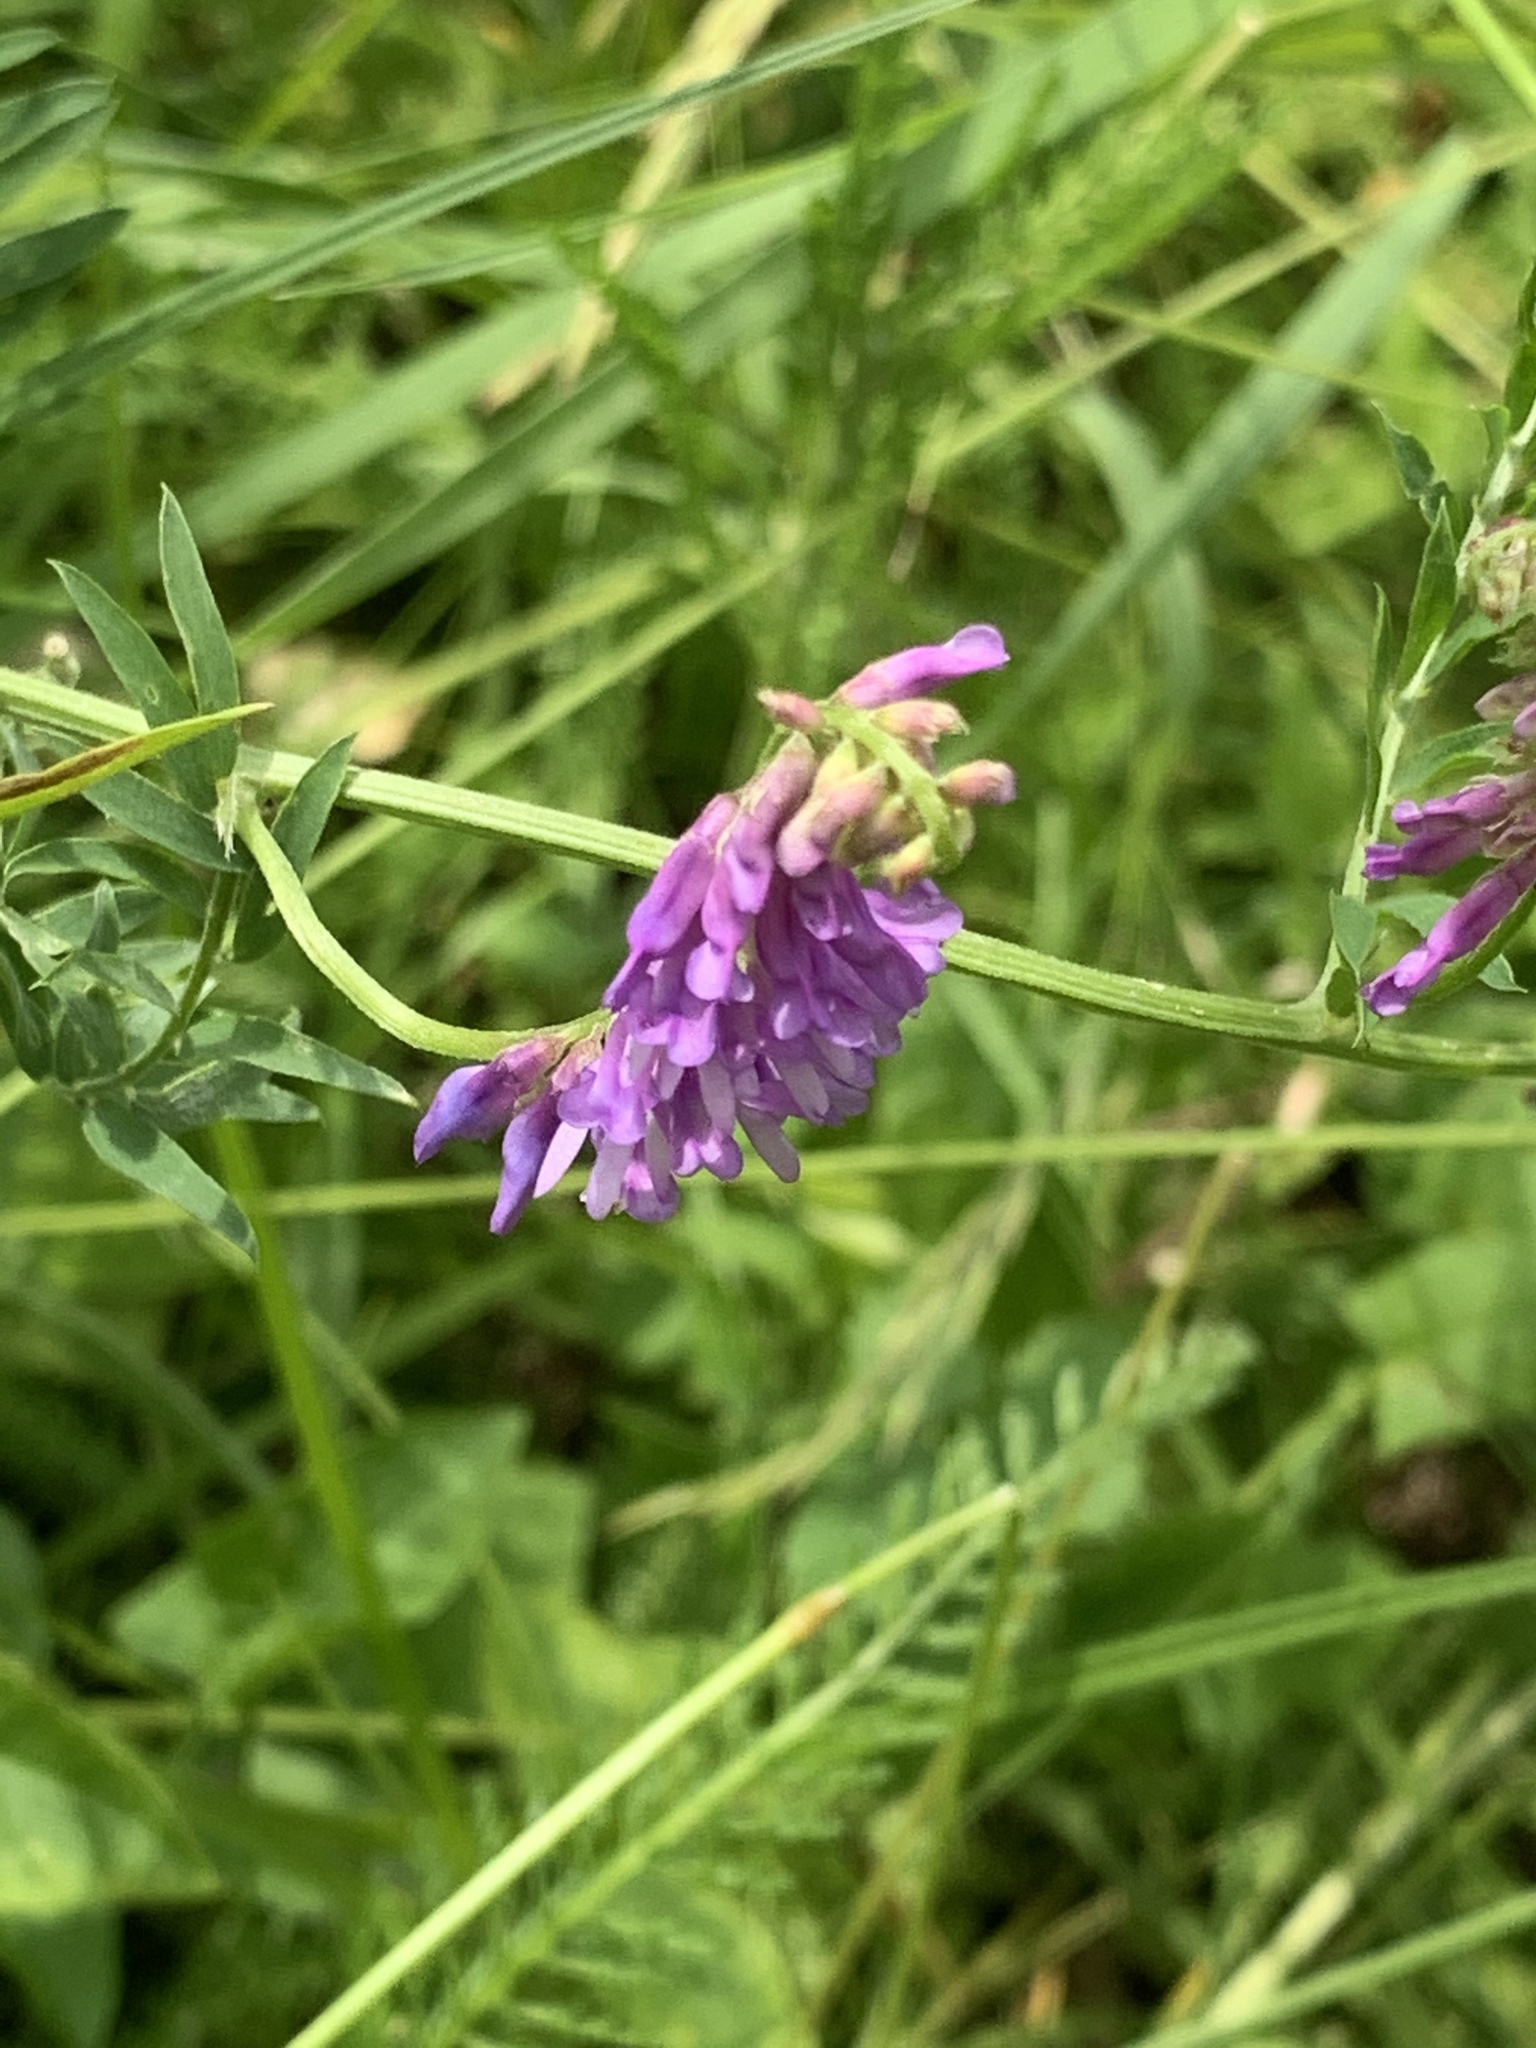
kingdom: Plantae
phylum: Tracheophyta
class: Magnoliopsida
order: Fabales
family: Fabaceae
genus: Vicia
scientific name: Vicia cracca
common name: Bird vetch
